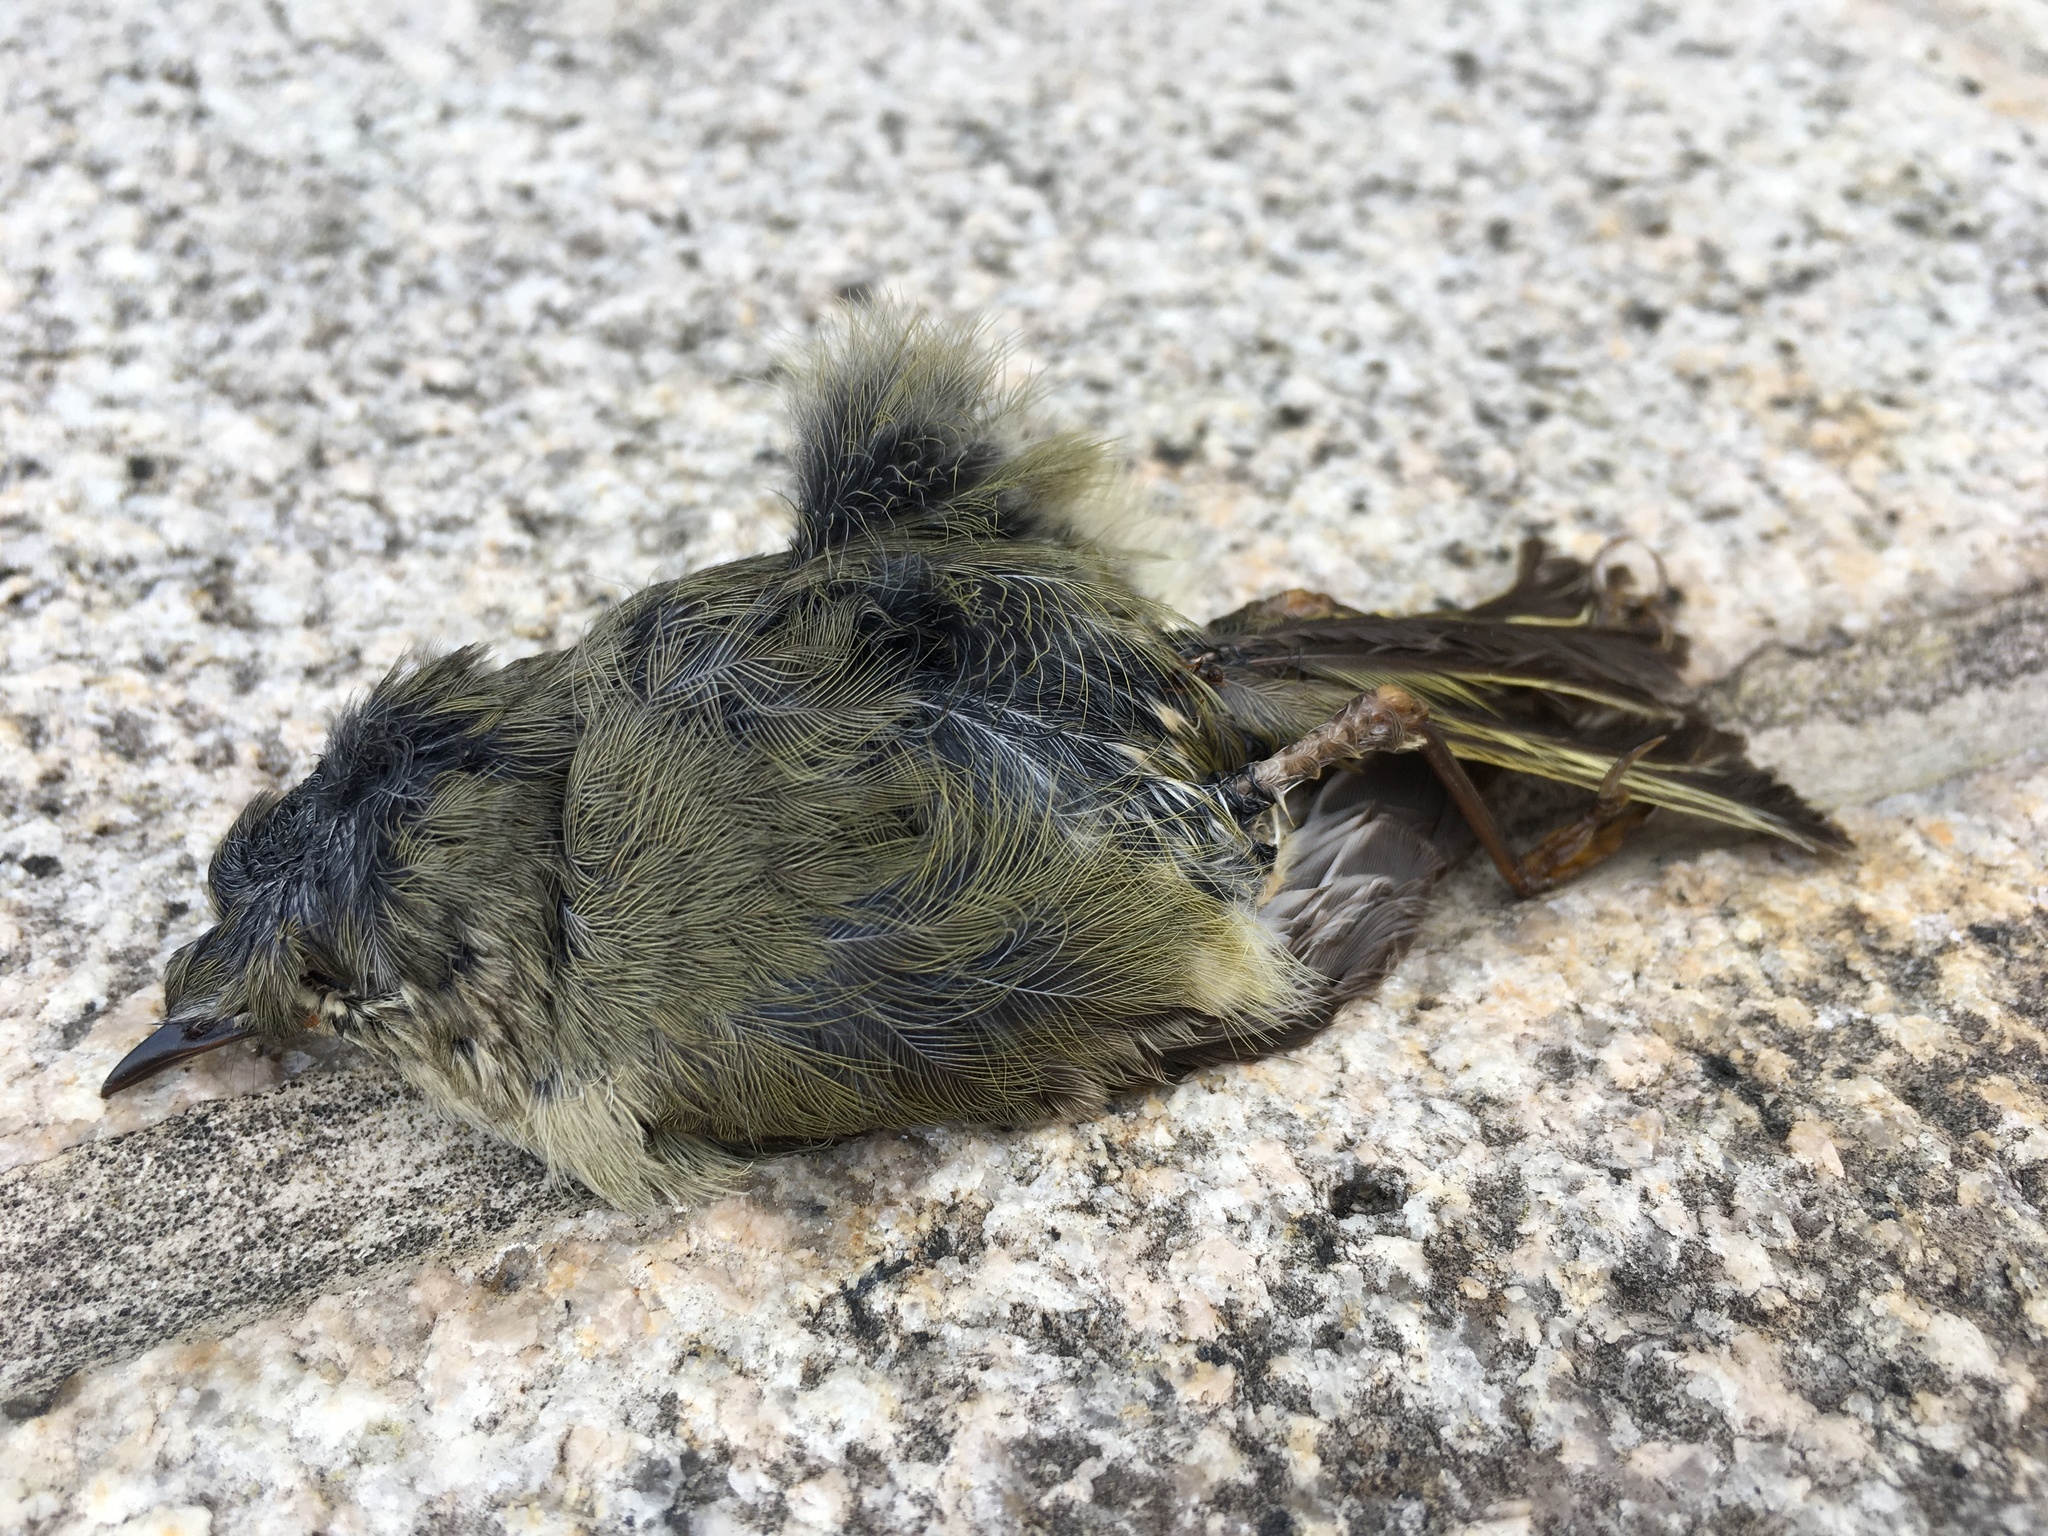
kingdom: Animalia
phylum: Chordata
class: Aves
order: Passeriformes
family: Regulidae
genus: Regulus
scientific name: Regulus calendula
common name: Ruby-crowned kinglet
